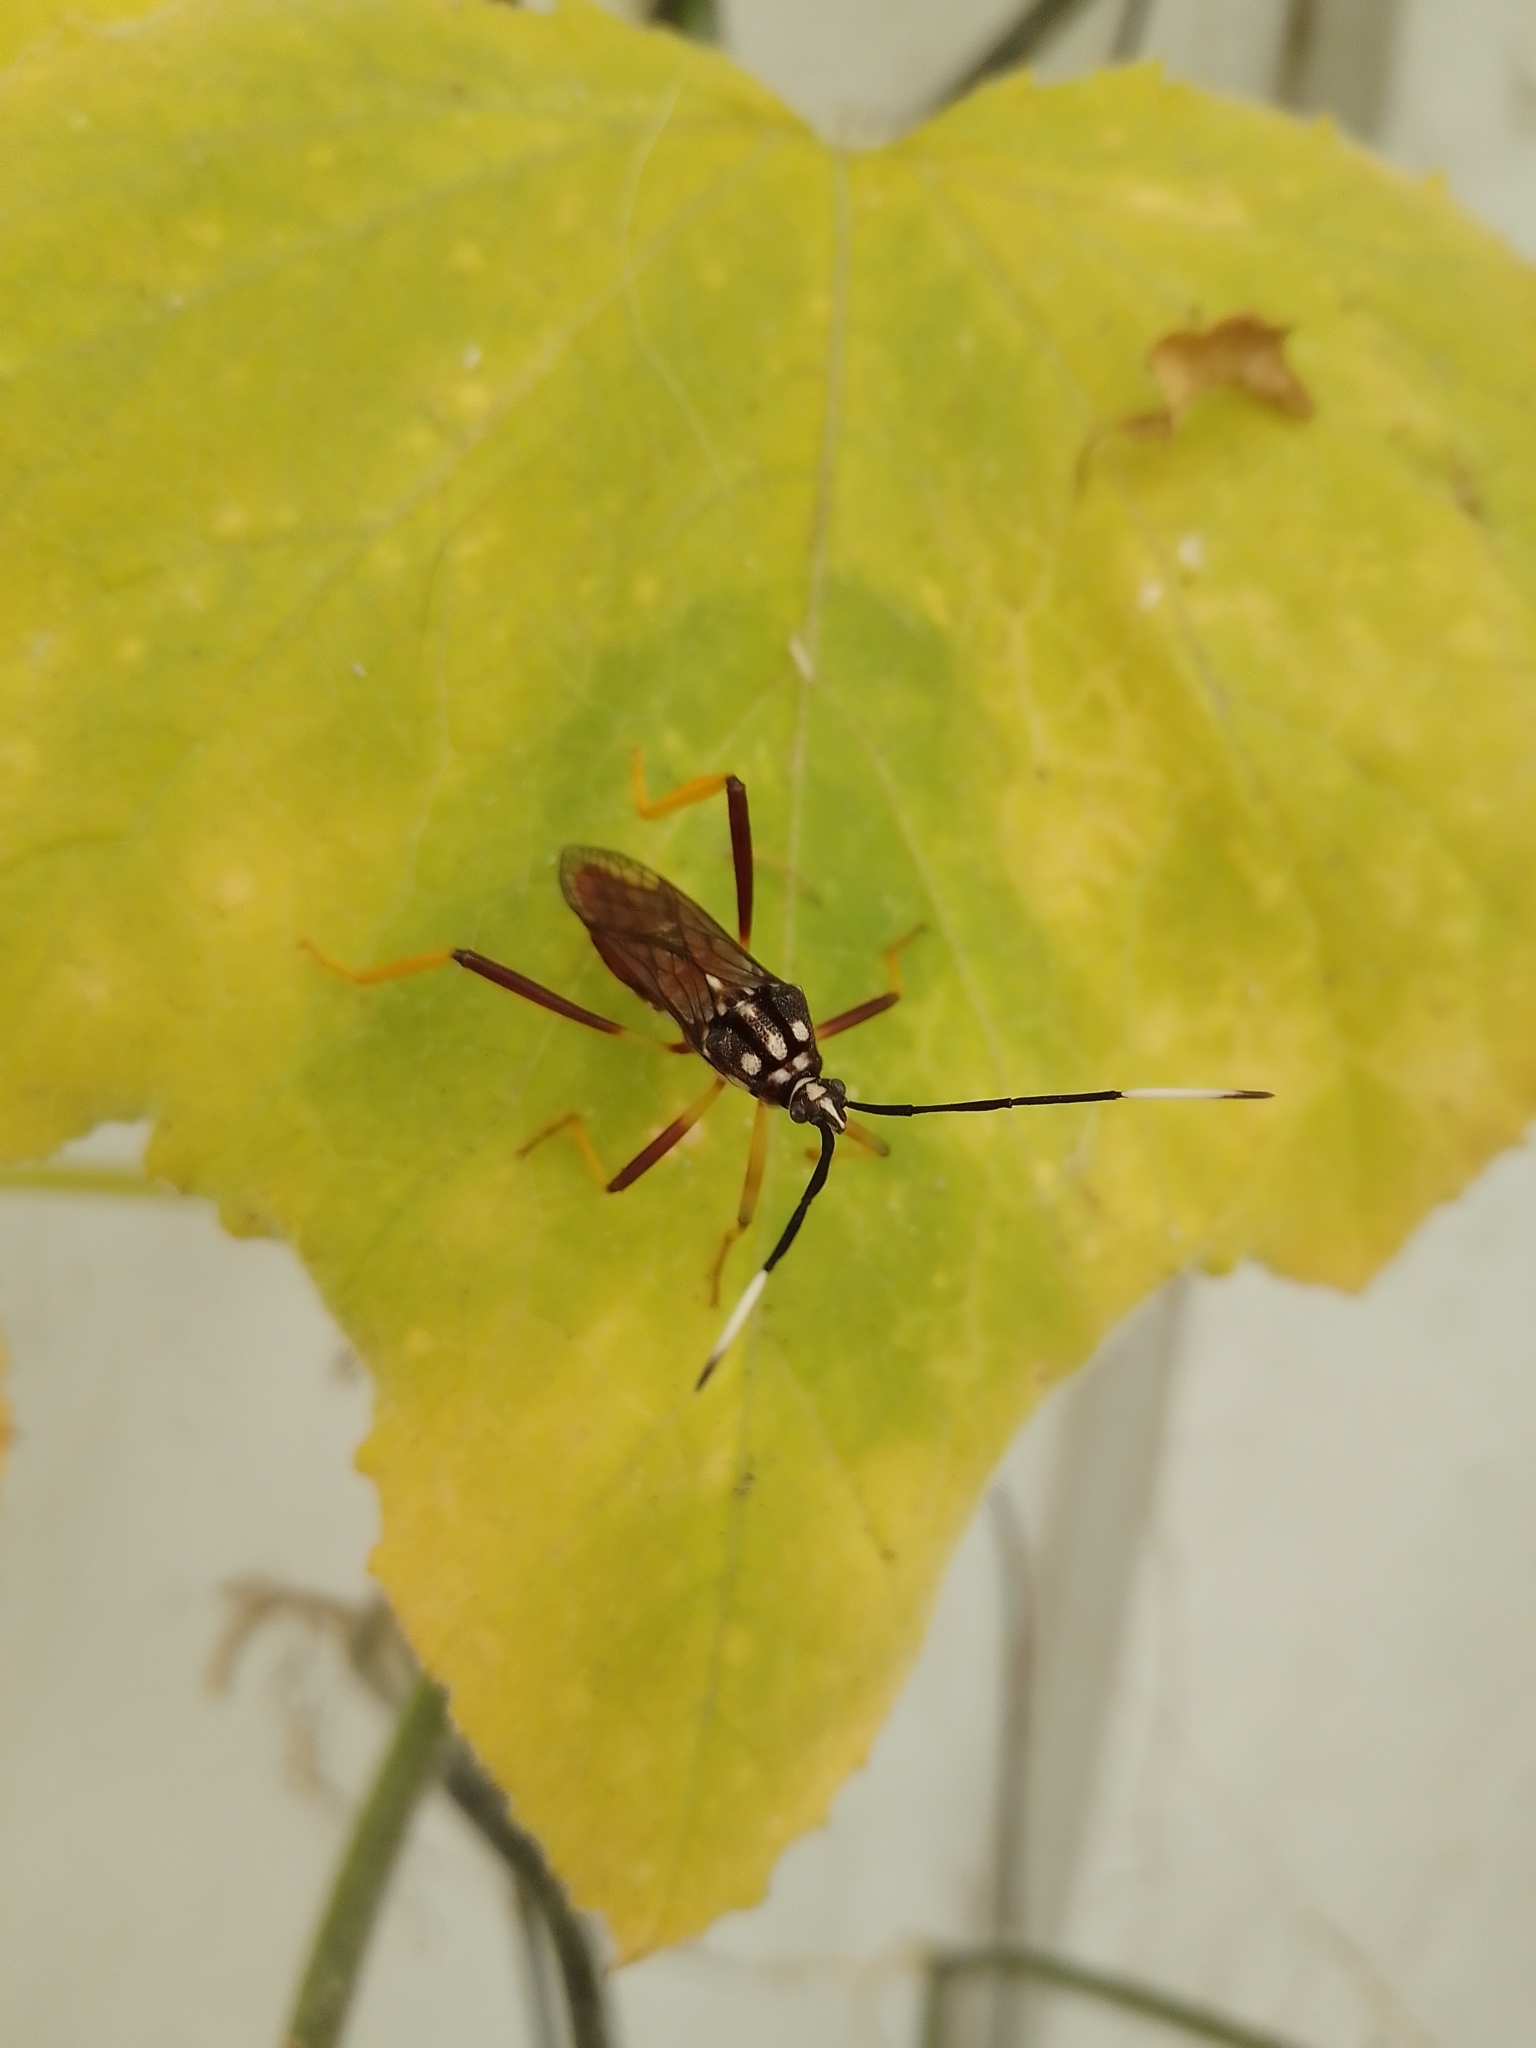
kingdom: Animalia
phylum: Arthropoda
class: Insecta
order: Hemiptera
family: Coreidae
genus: Holhymenia
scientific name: Holhymenia histrio
